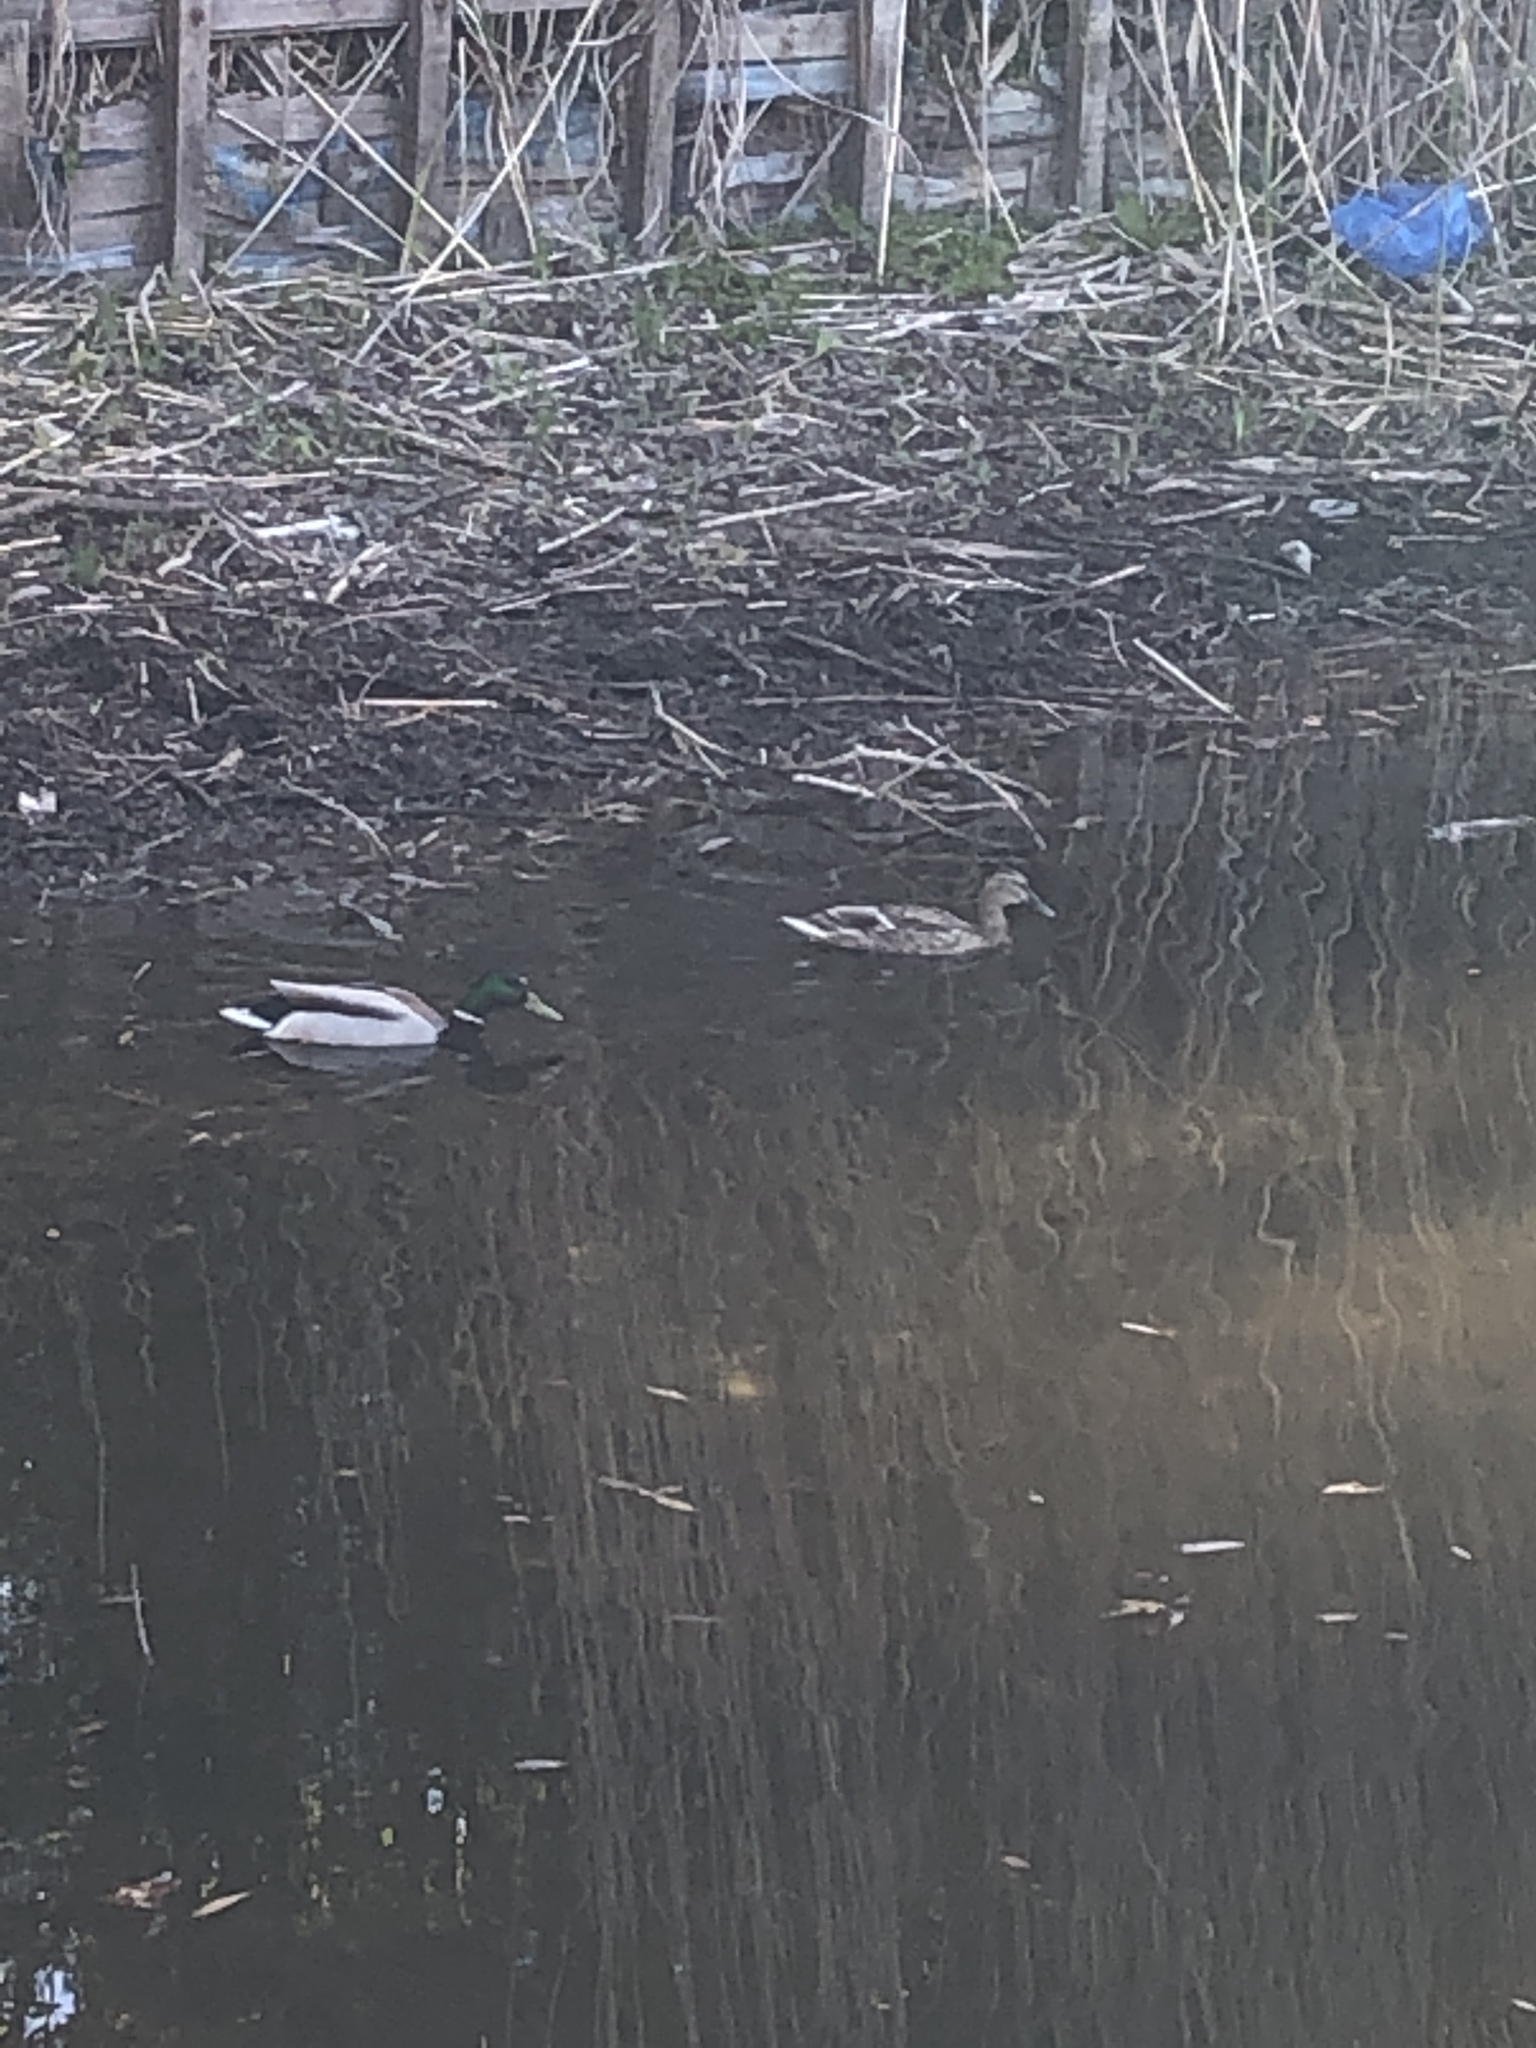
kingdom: Animalia
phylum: Chordata
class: Aves
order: Anseriformes
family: Anatidae
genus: Anas
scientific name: Anas platyrhynchos
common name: Mallard
